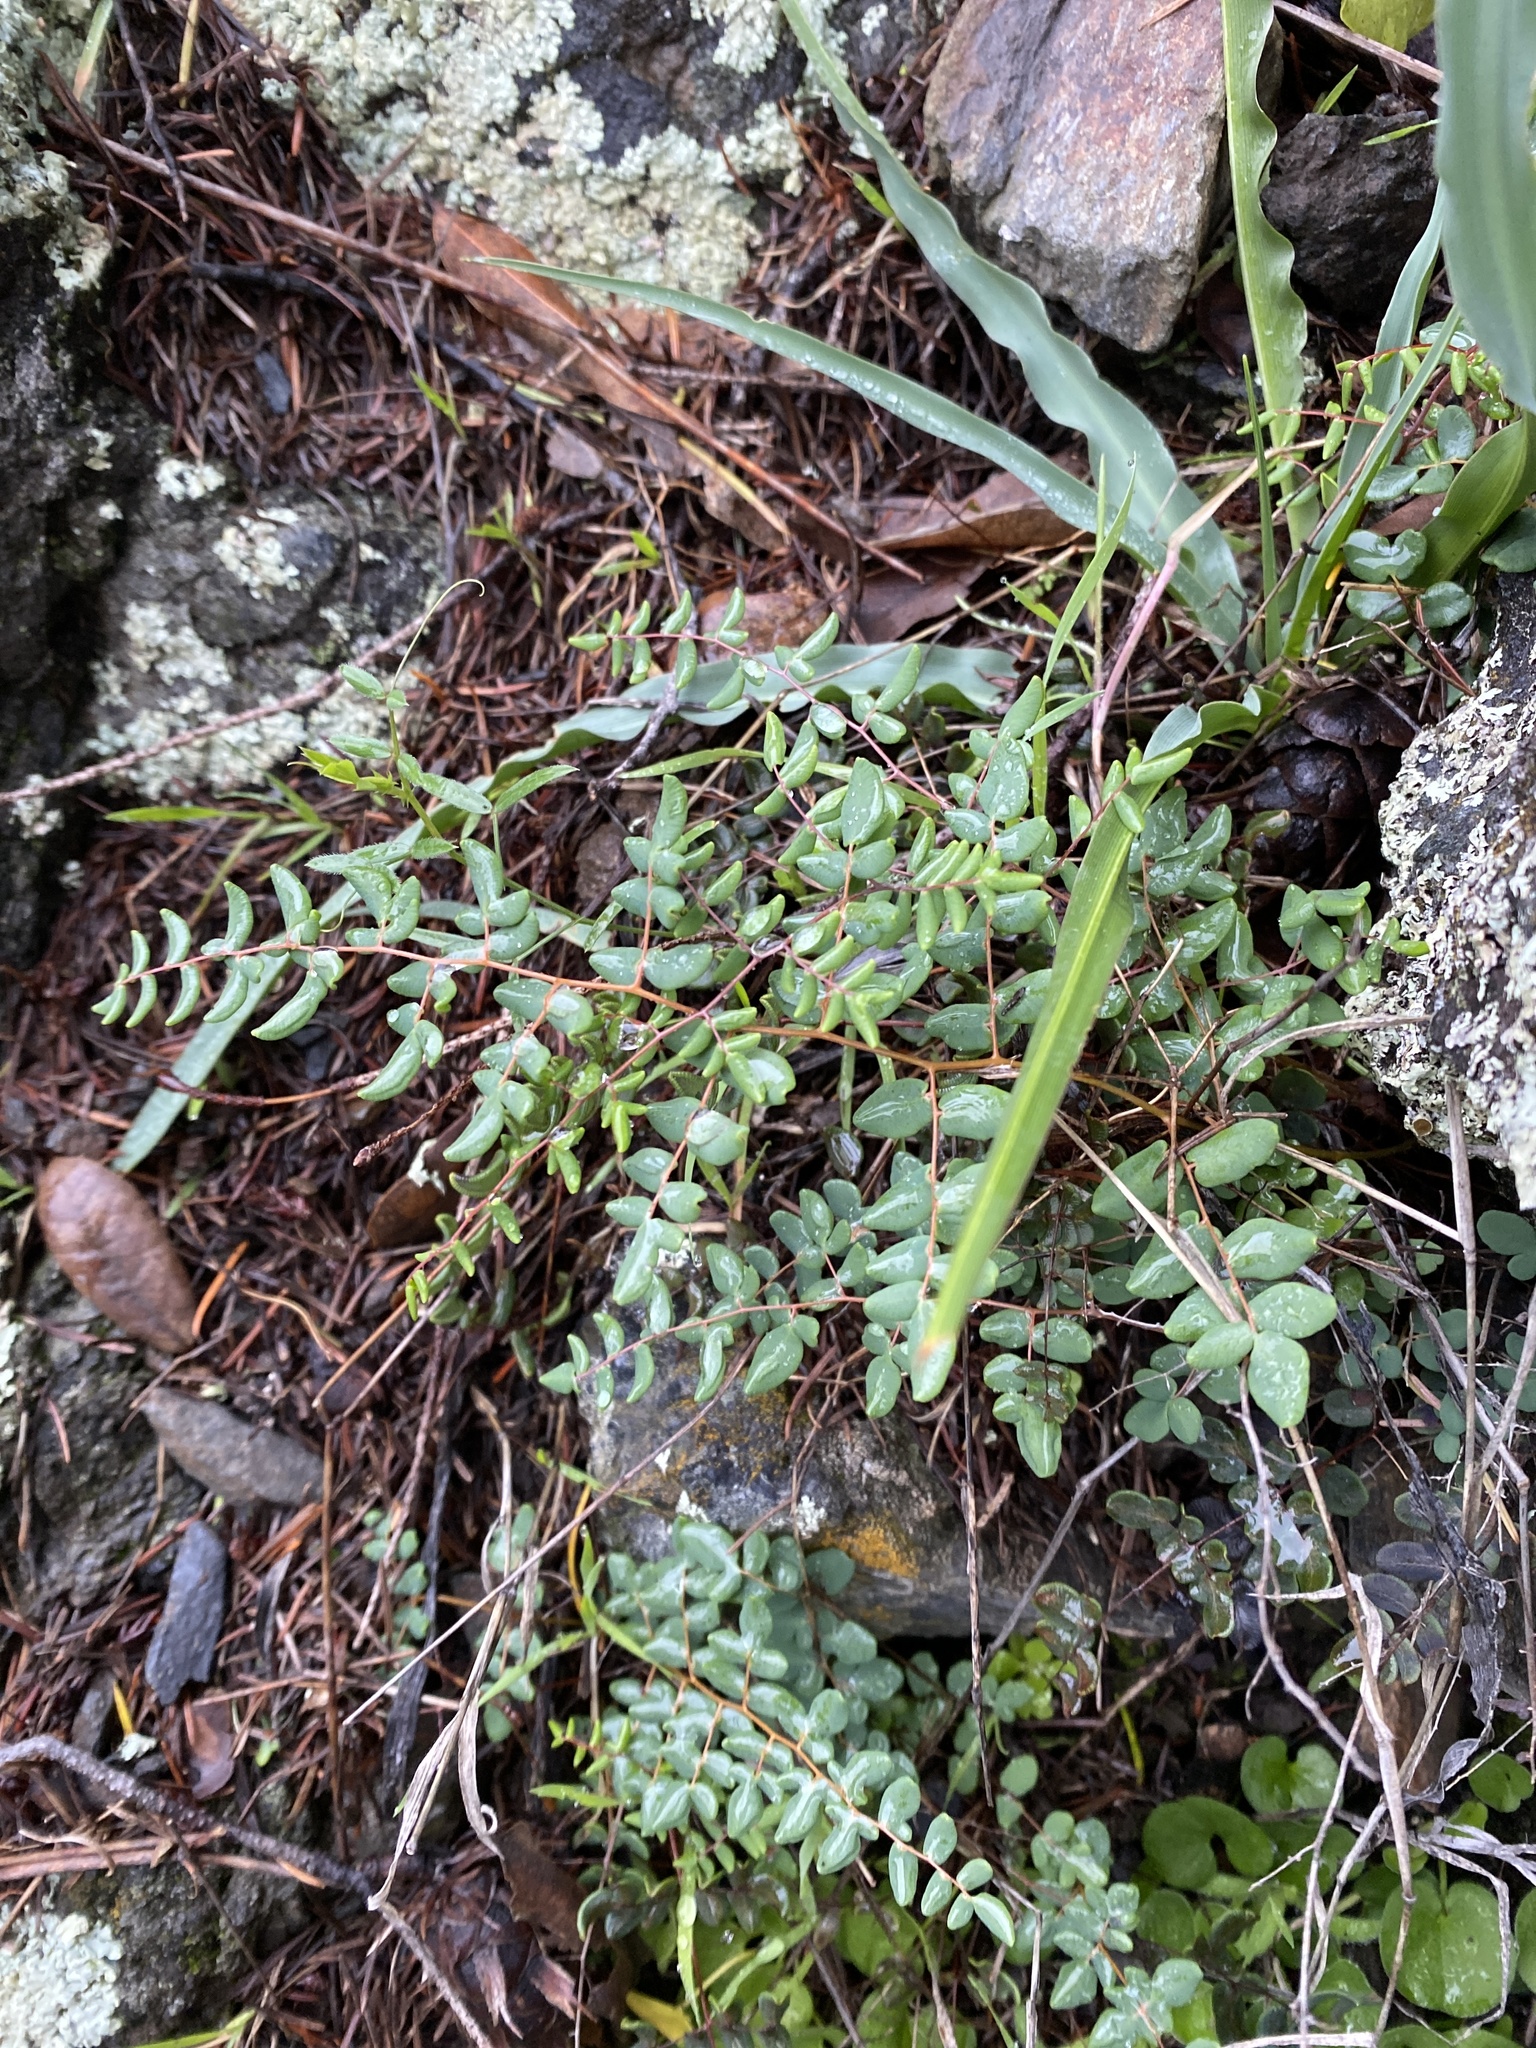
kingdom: Plantae
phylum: Tracheophyta
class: Polypodiopsida
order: Polypodiales
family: Pteridaceae
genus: Pellaea
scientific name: Pellaea andromedifolia
